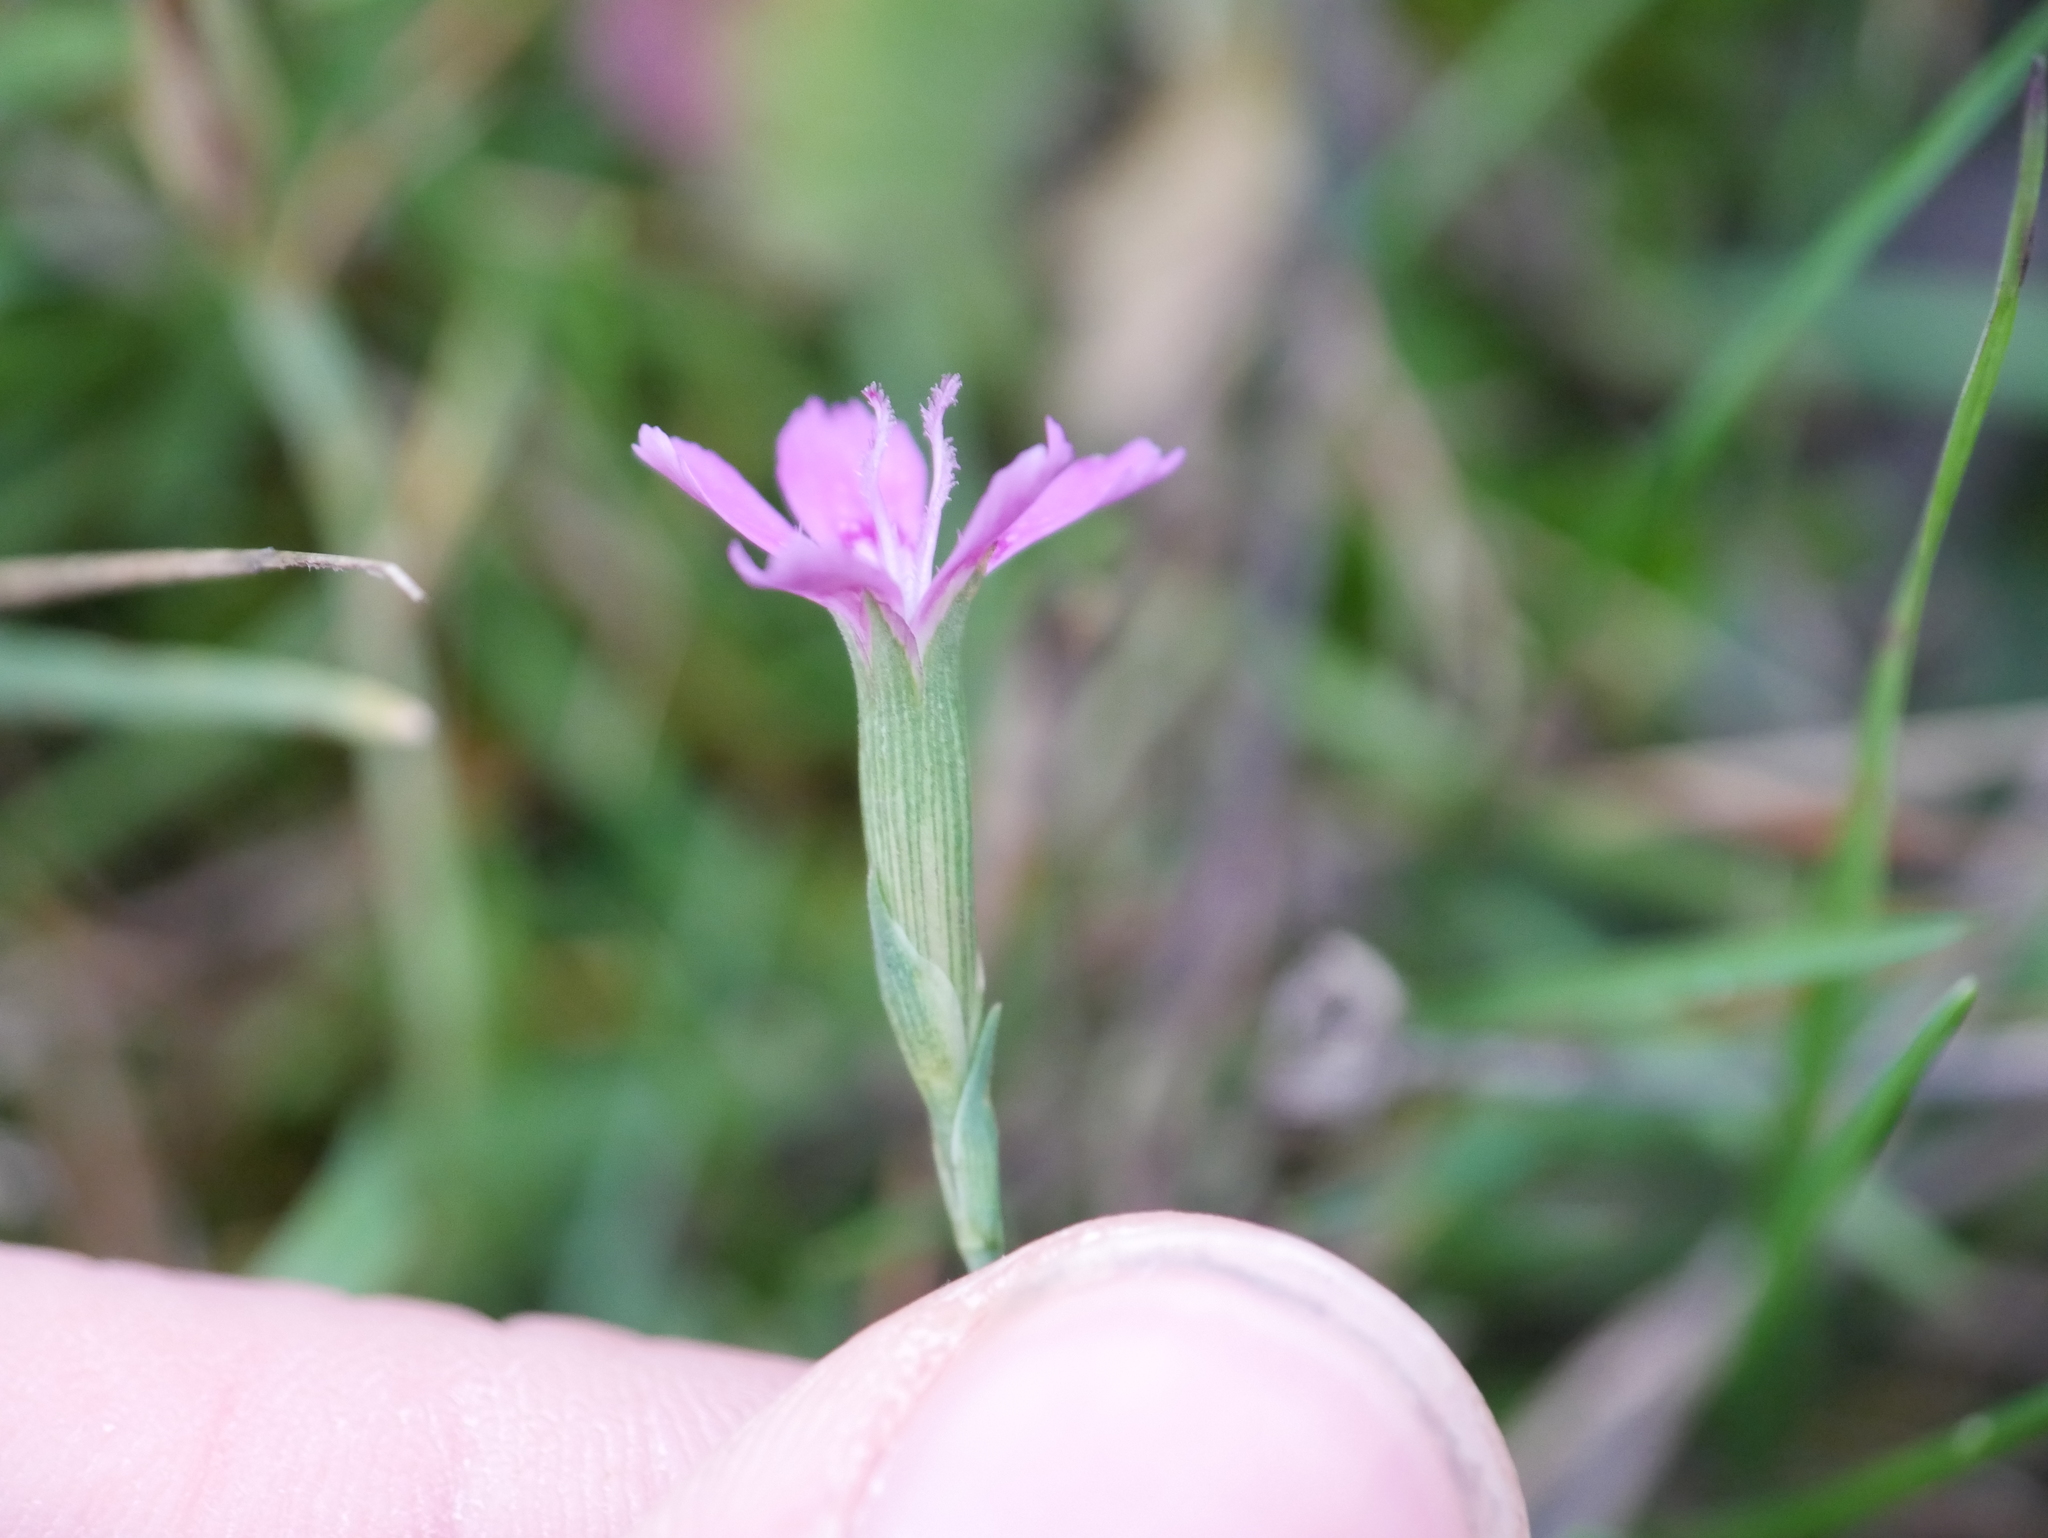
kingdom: Plantae
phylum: Tracheophyta
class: Magnoliopsida
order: Caryophyllales
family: Caryophyllaceae
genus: Dianthus
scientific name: Dianthus deltoides
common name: Maiden pink
